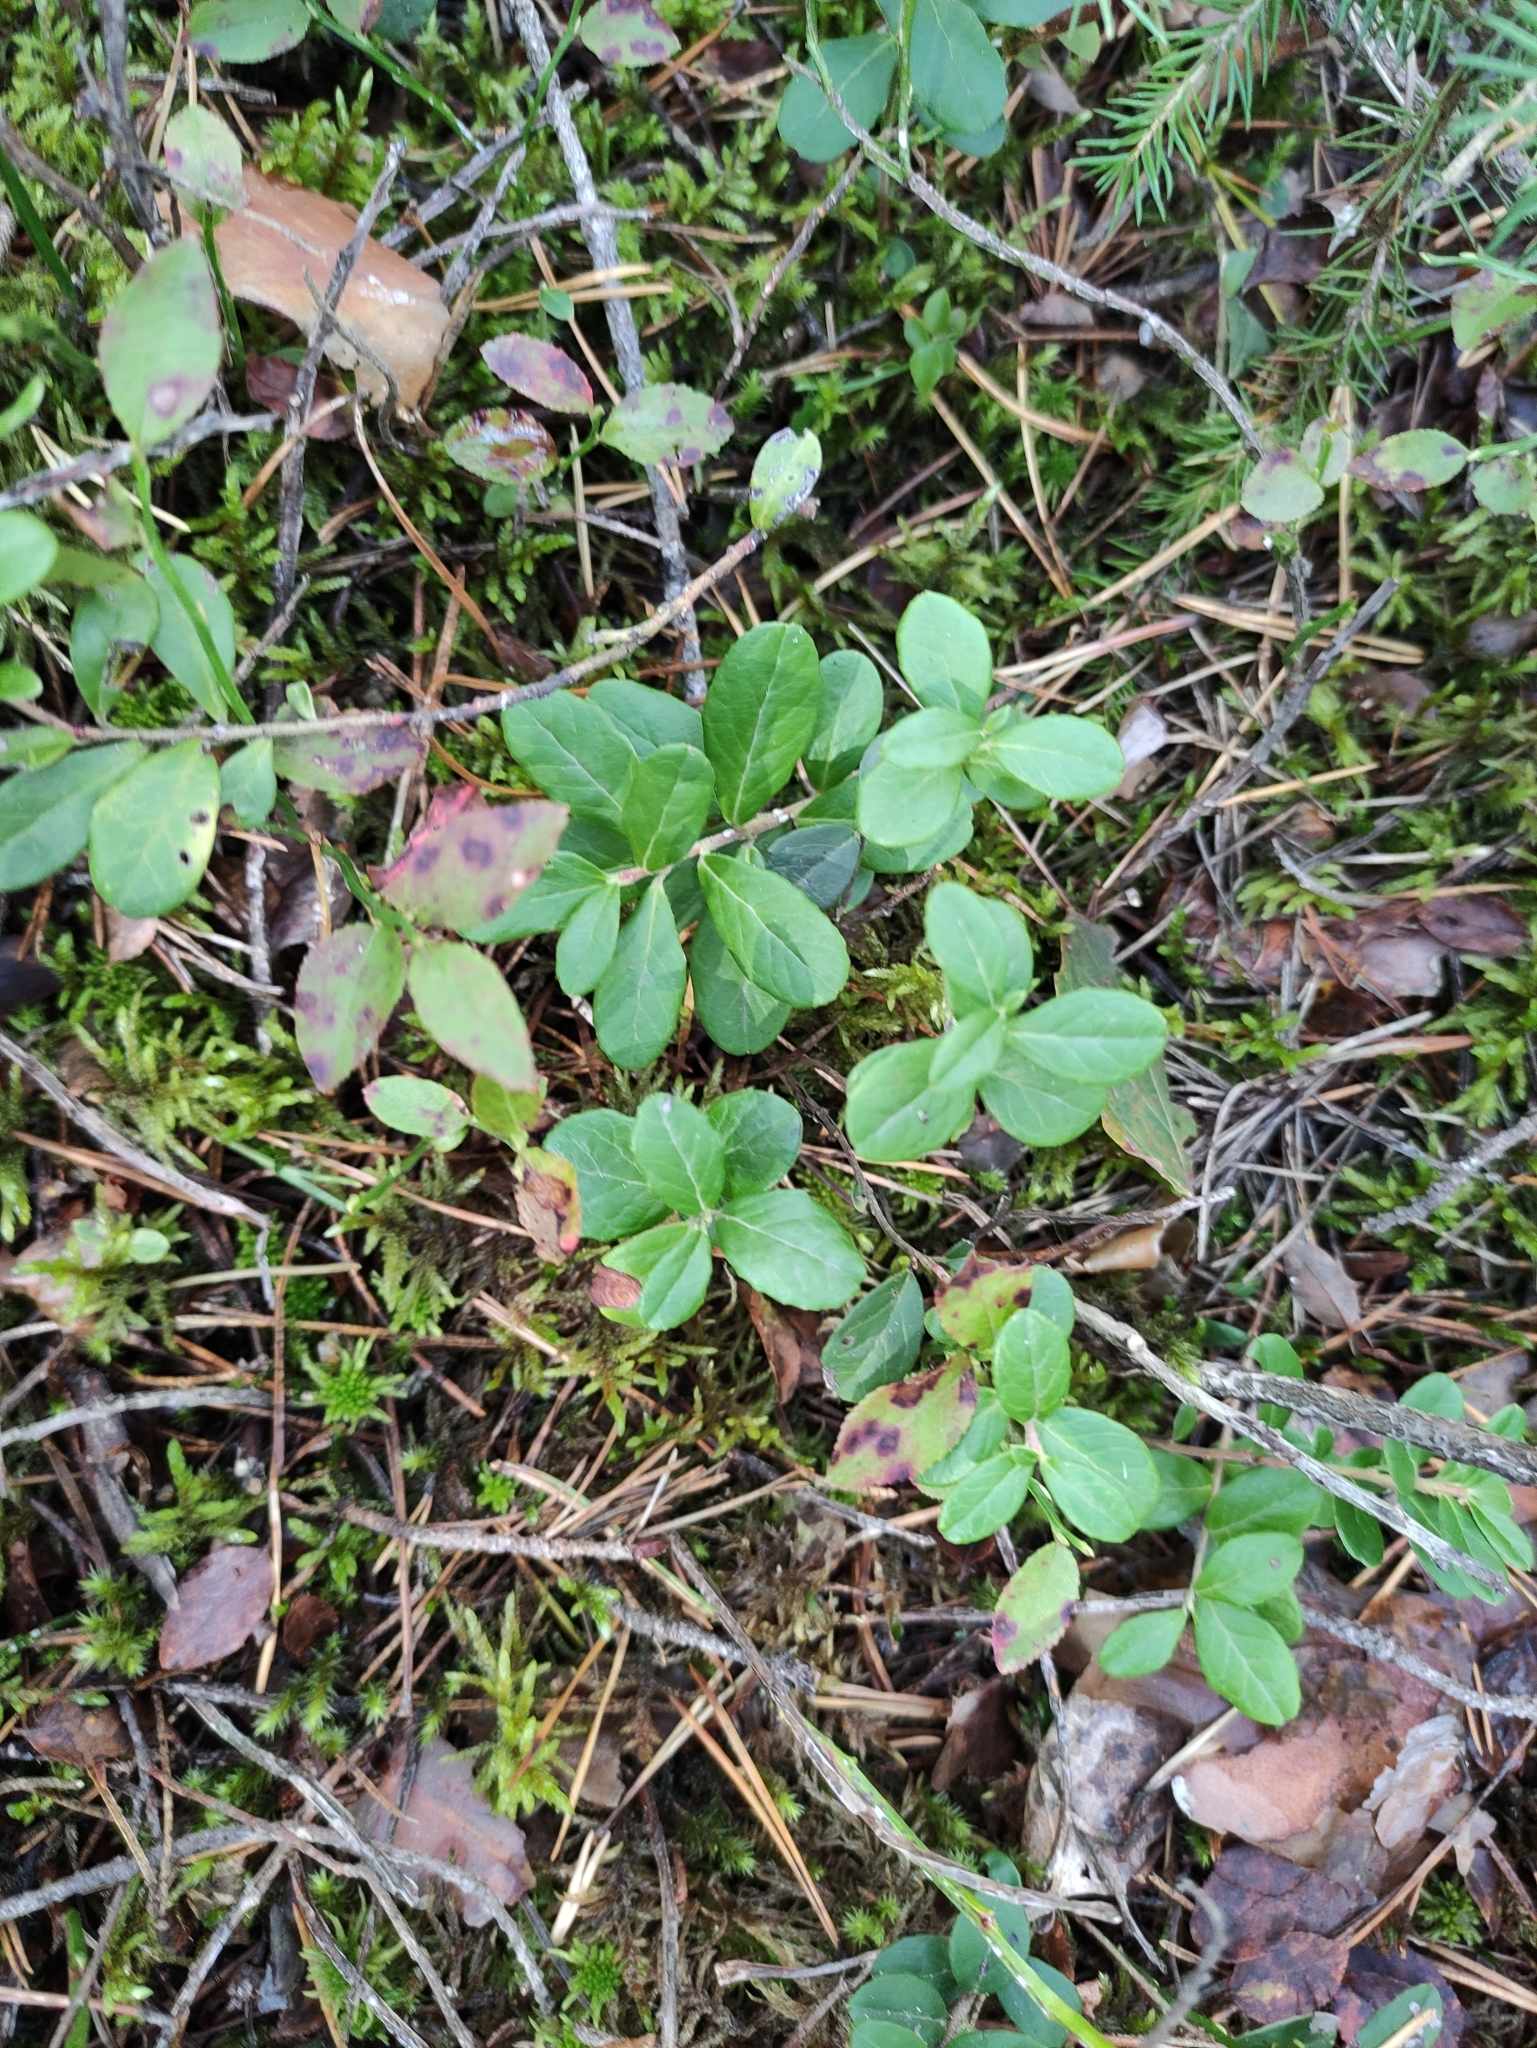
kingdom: Plantae
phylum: Tracheophyta
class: Magnoliopsida
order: Ericales
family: Ericaceae
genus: Vaccinium
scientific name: Vaccinium vitis-idaea
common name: Cowberry
